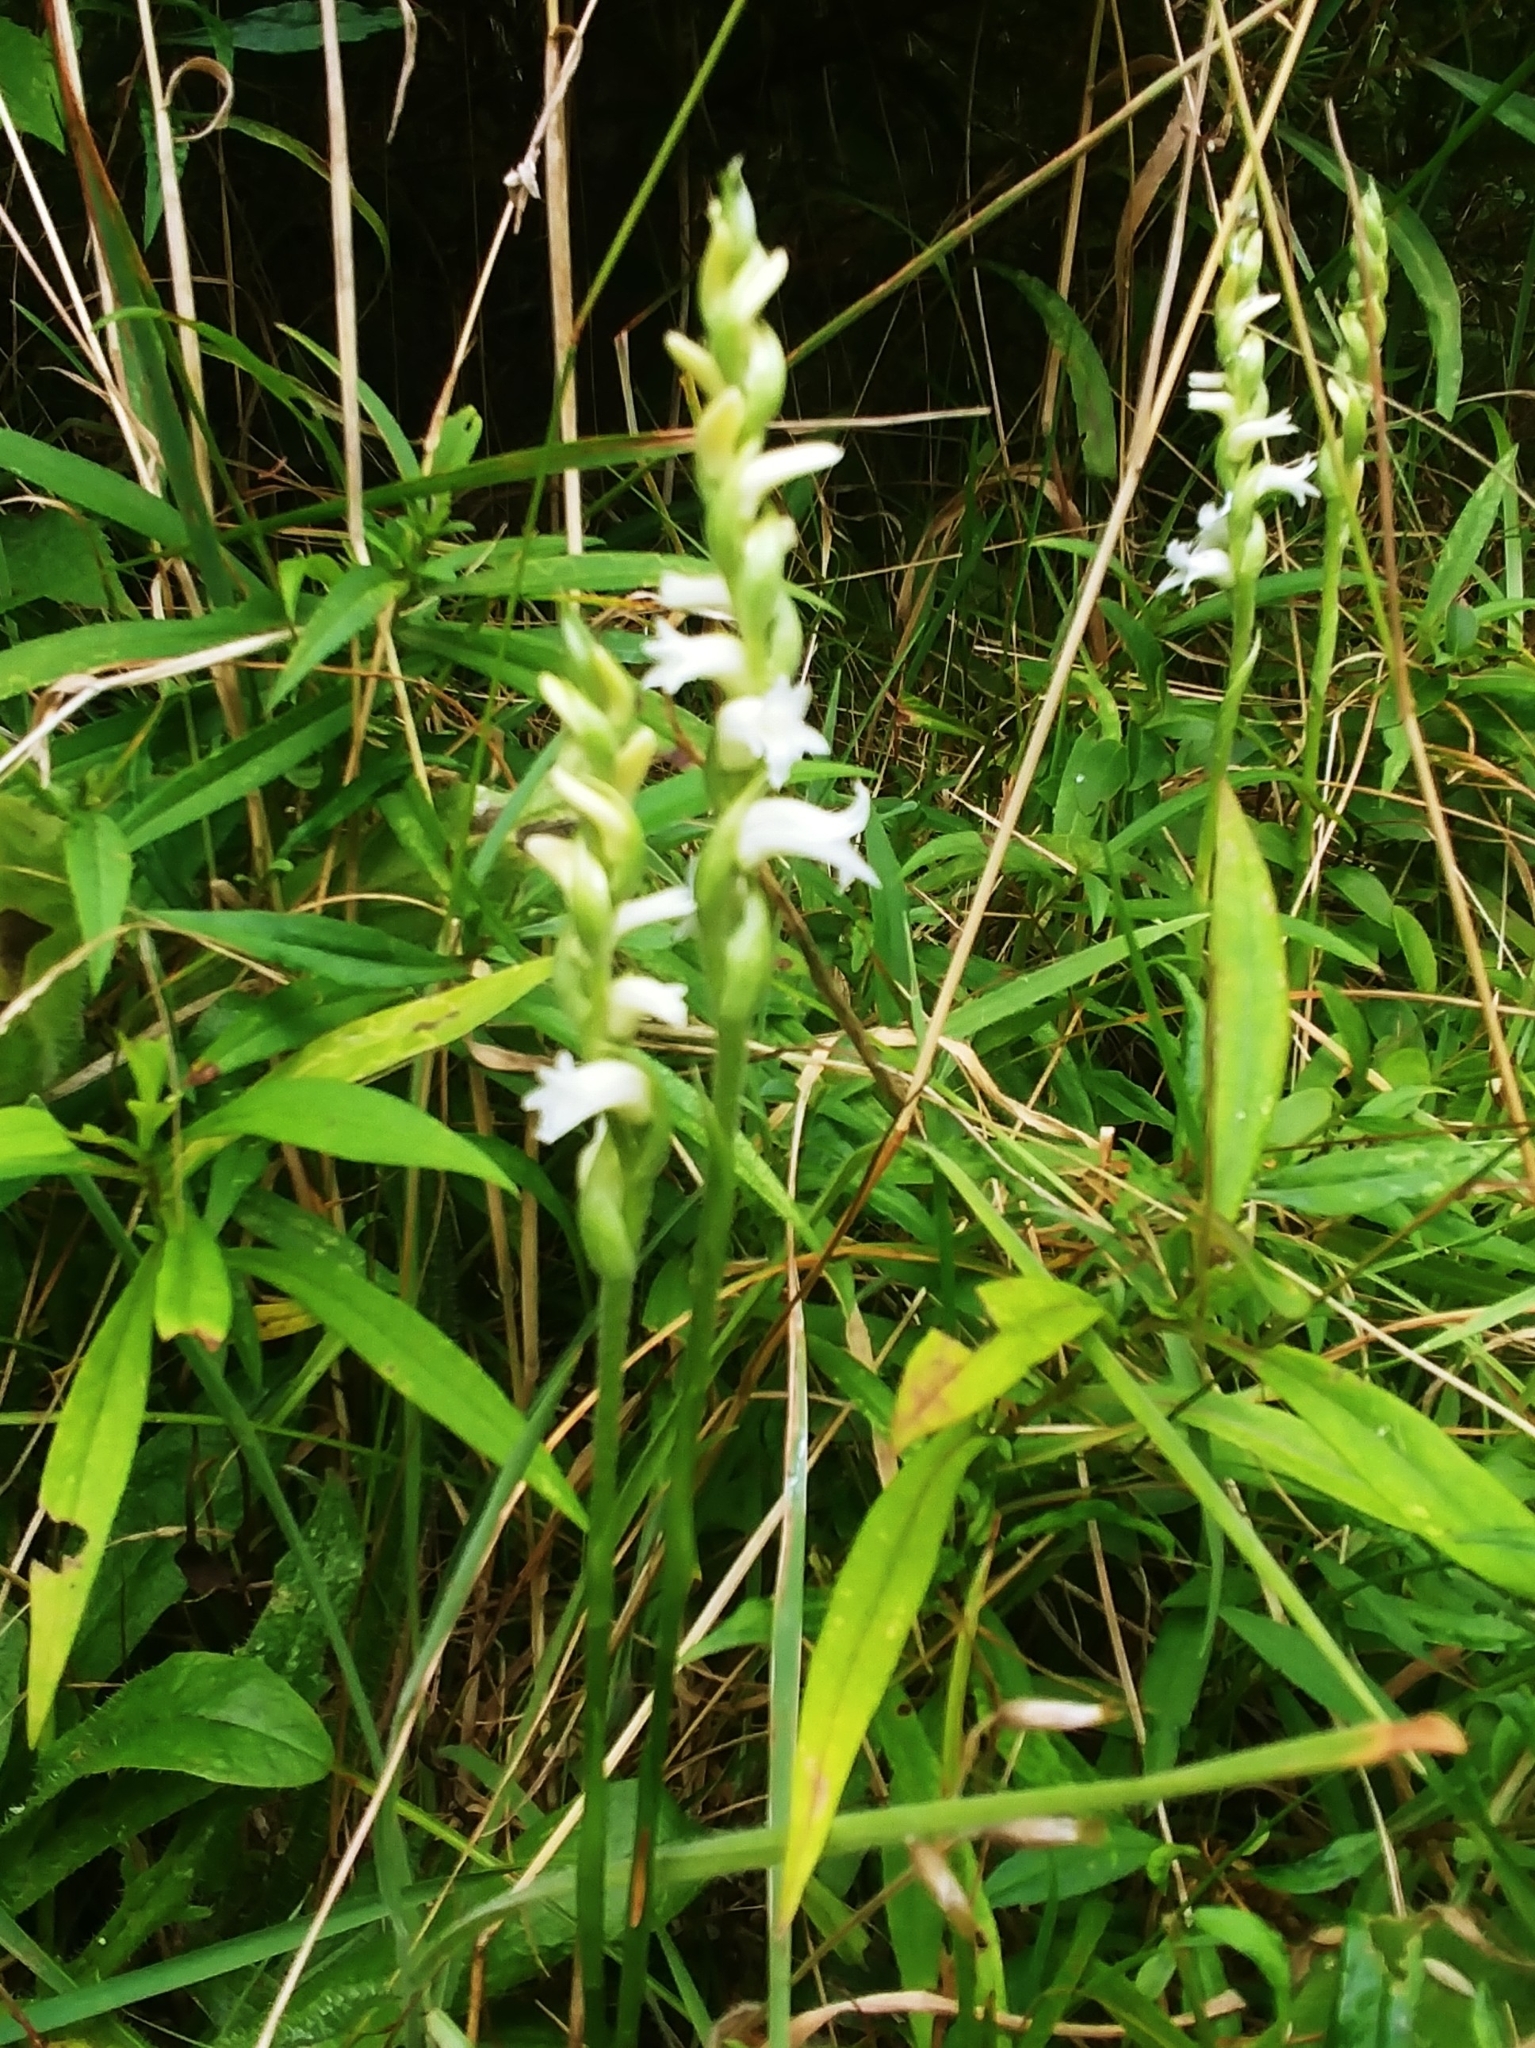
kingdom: Plantae
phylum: Tracheophyta
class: Liliopsida
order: Asparagales
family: Orchidaceae
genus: Spiranthes
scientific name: Spiranthes arcisepala
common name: Appalachian ladies'-tresses
